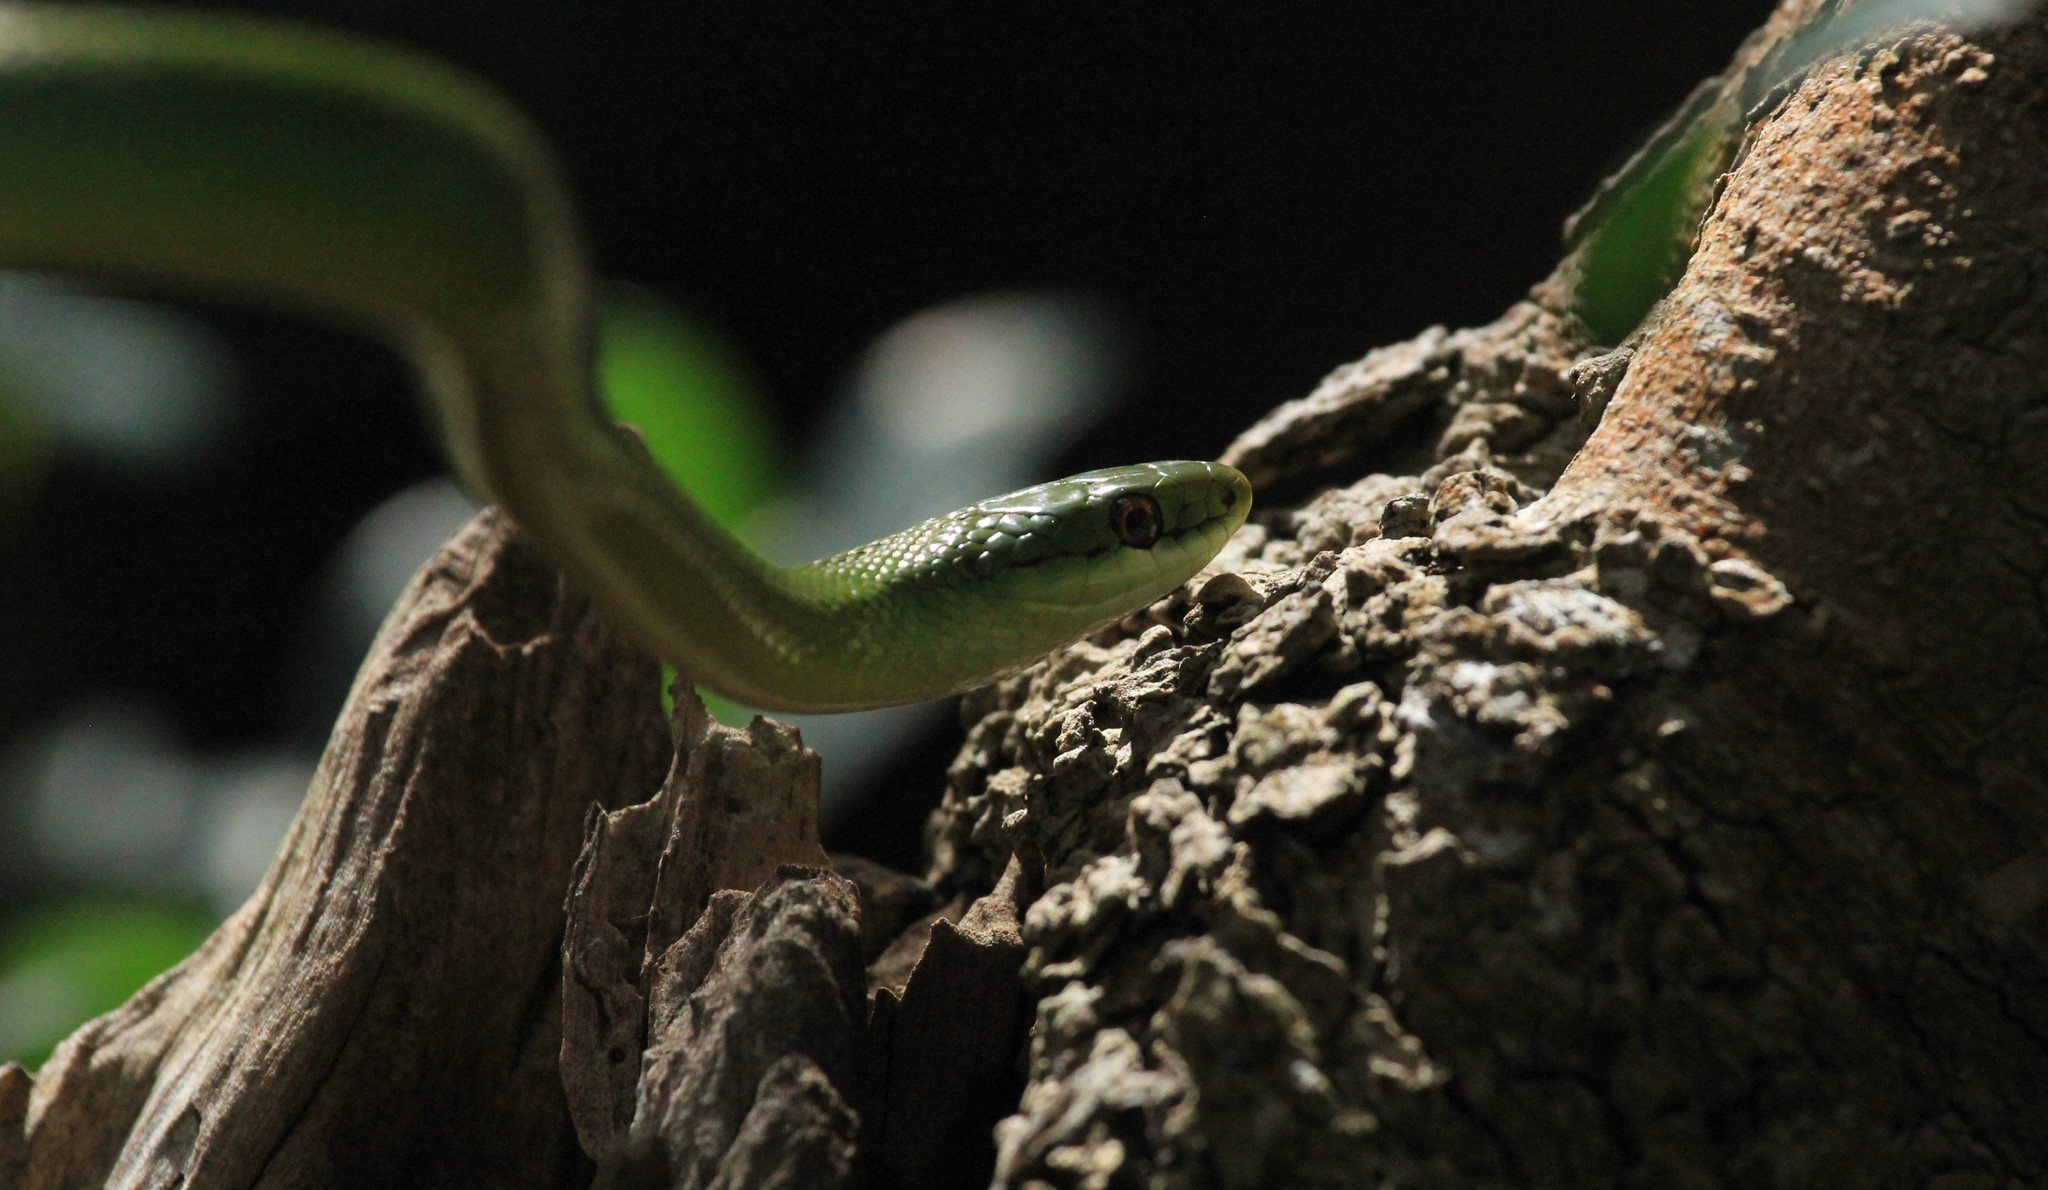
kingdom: Animalia
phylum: Chordata
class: Squamata
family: Colubridae
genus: Philodryas
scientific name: Philodryas aestiva
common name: Brazilian green racer
